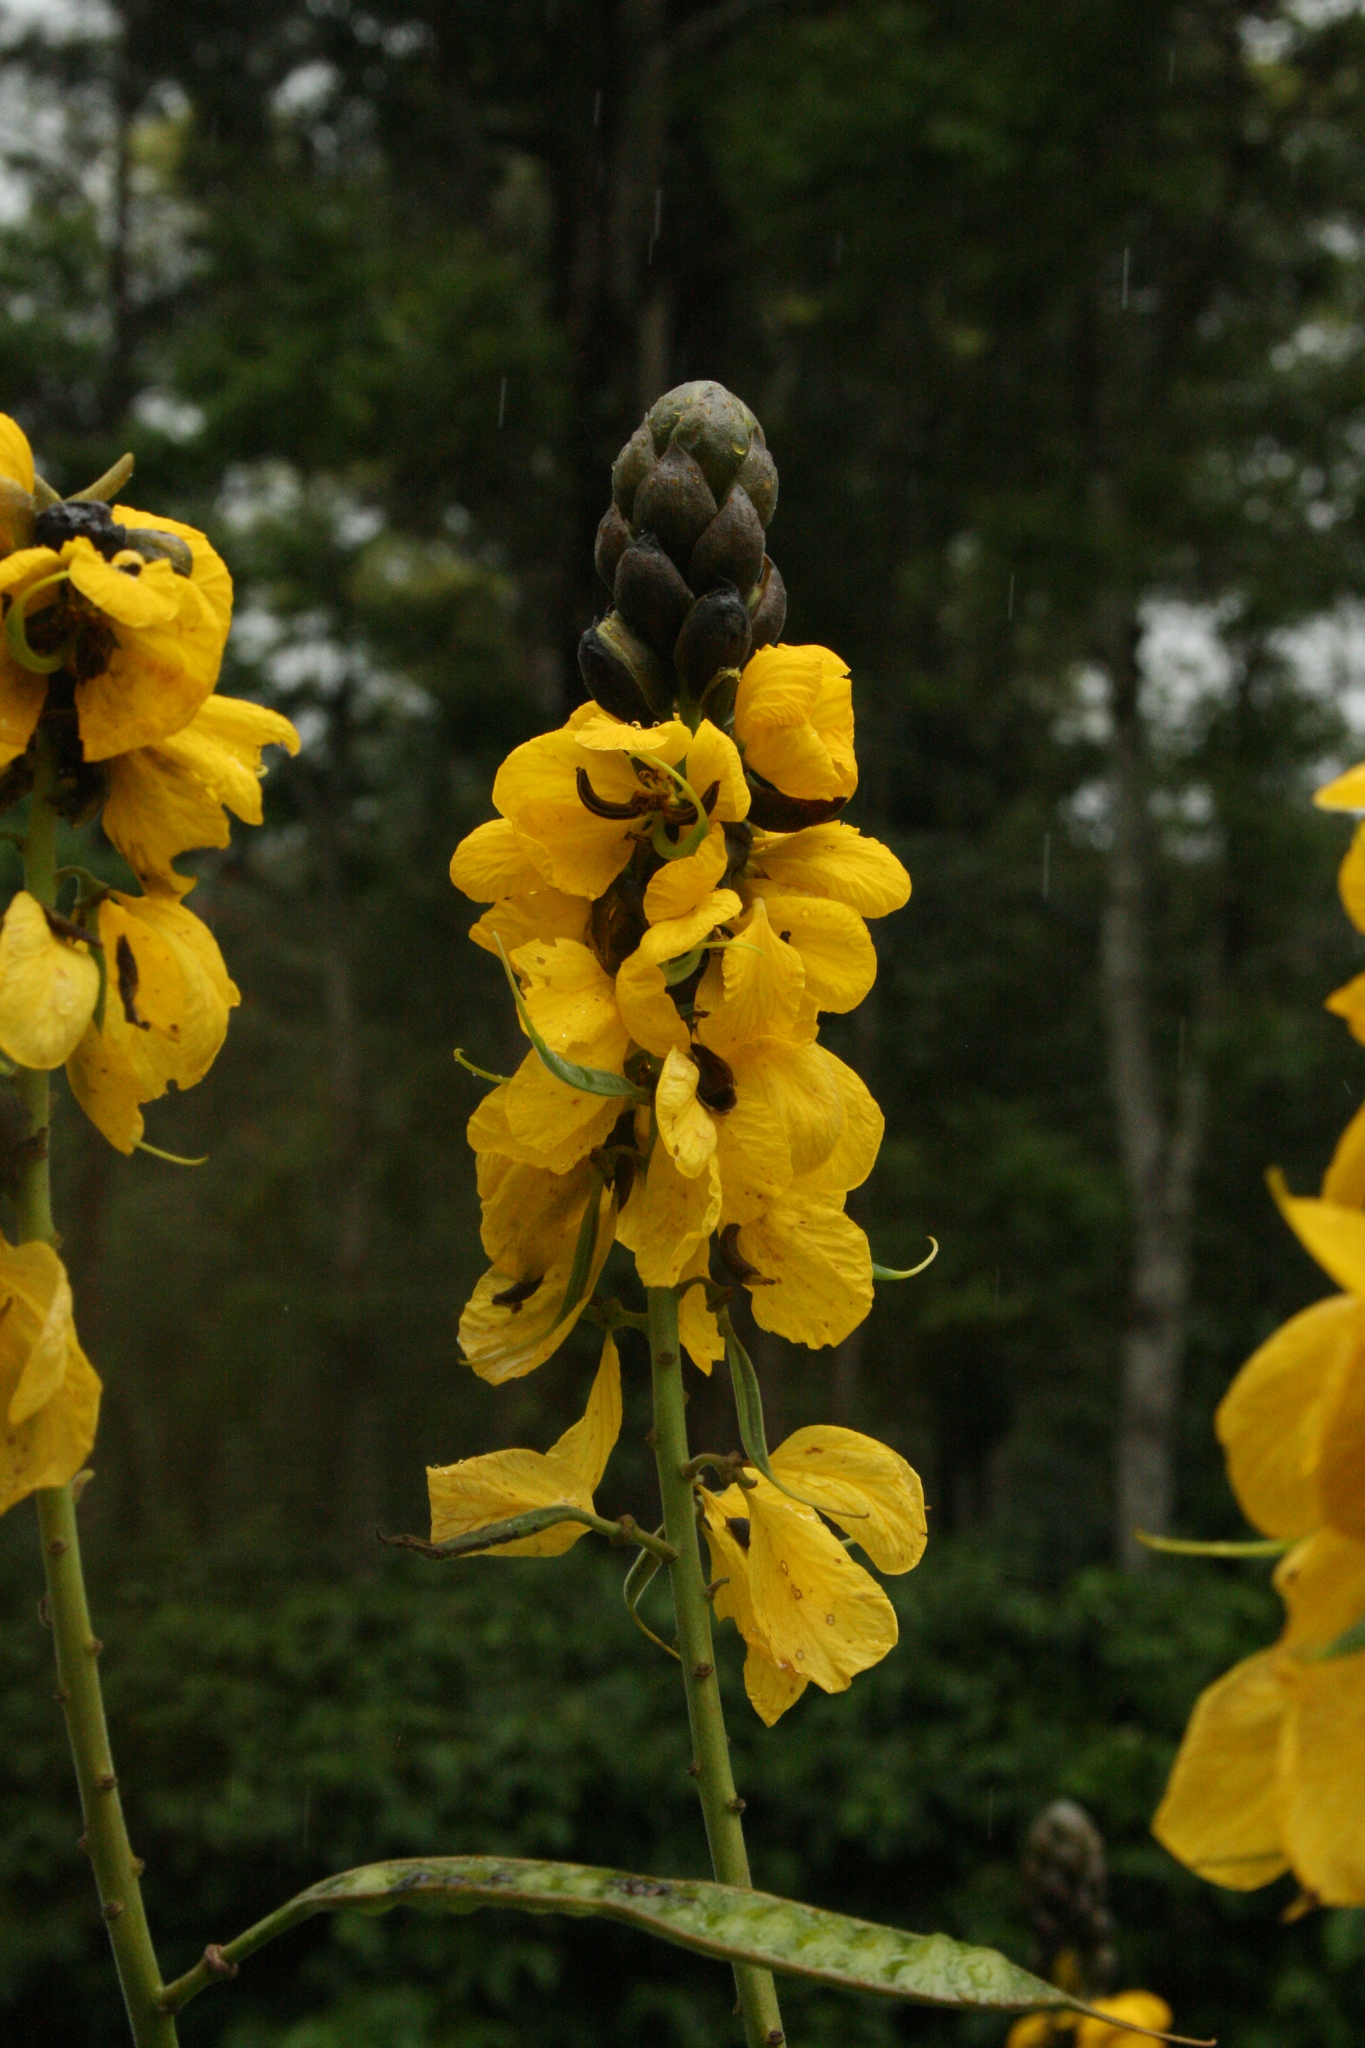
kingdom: Plantae
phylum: Tracheophyta
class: Magnoliopsida
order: Fabales
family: Fabaceae
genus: Senna
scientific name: Senna didymobotrya
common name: African senna
